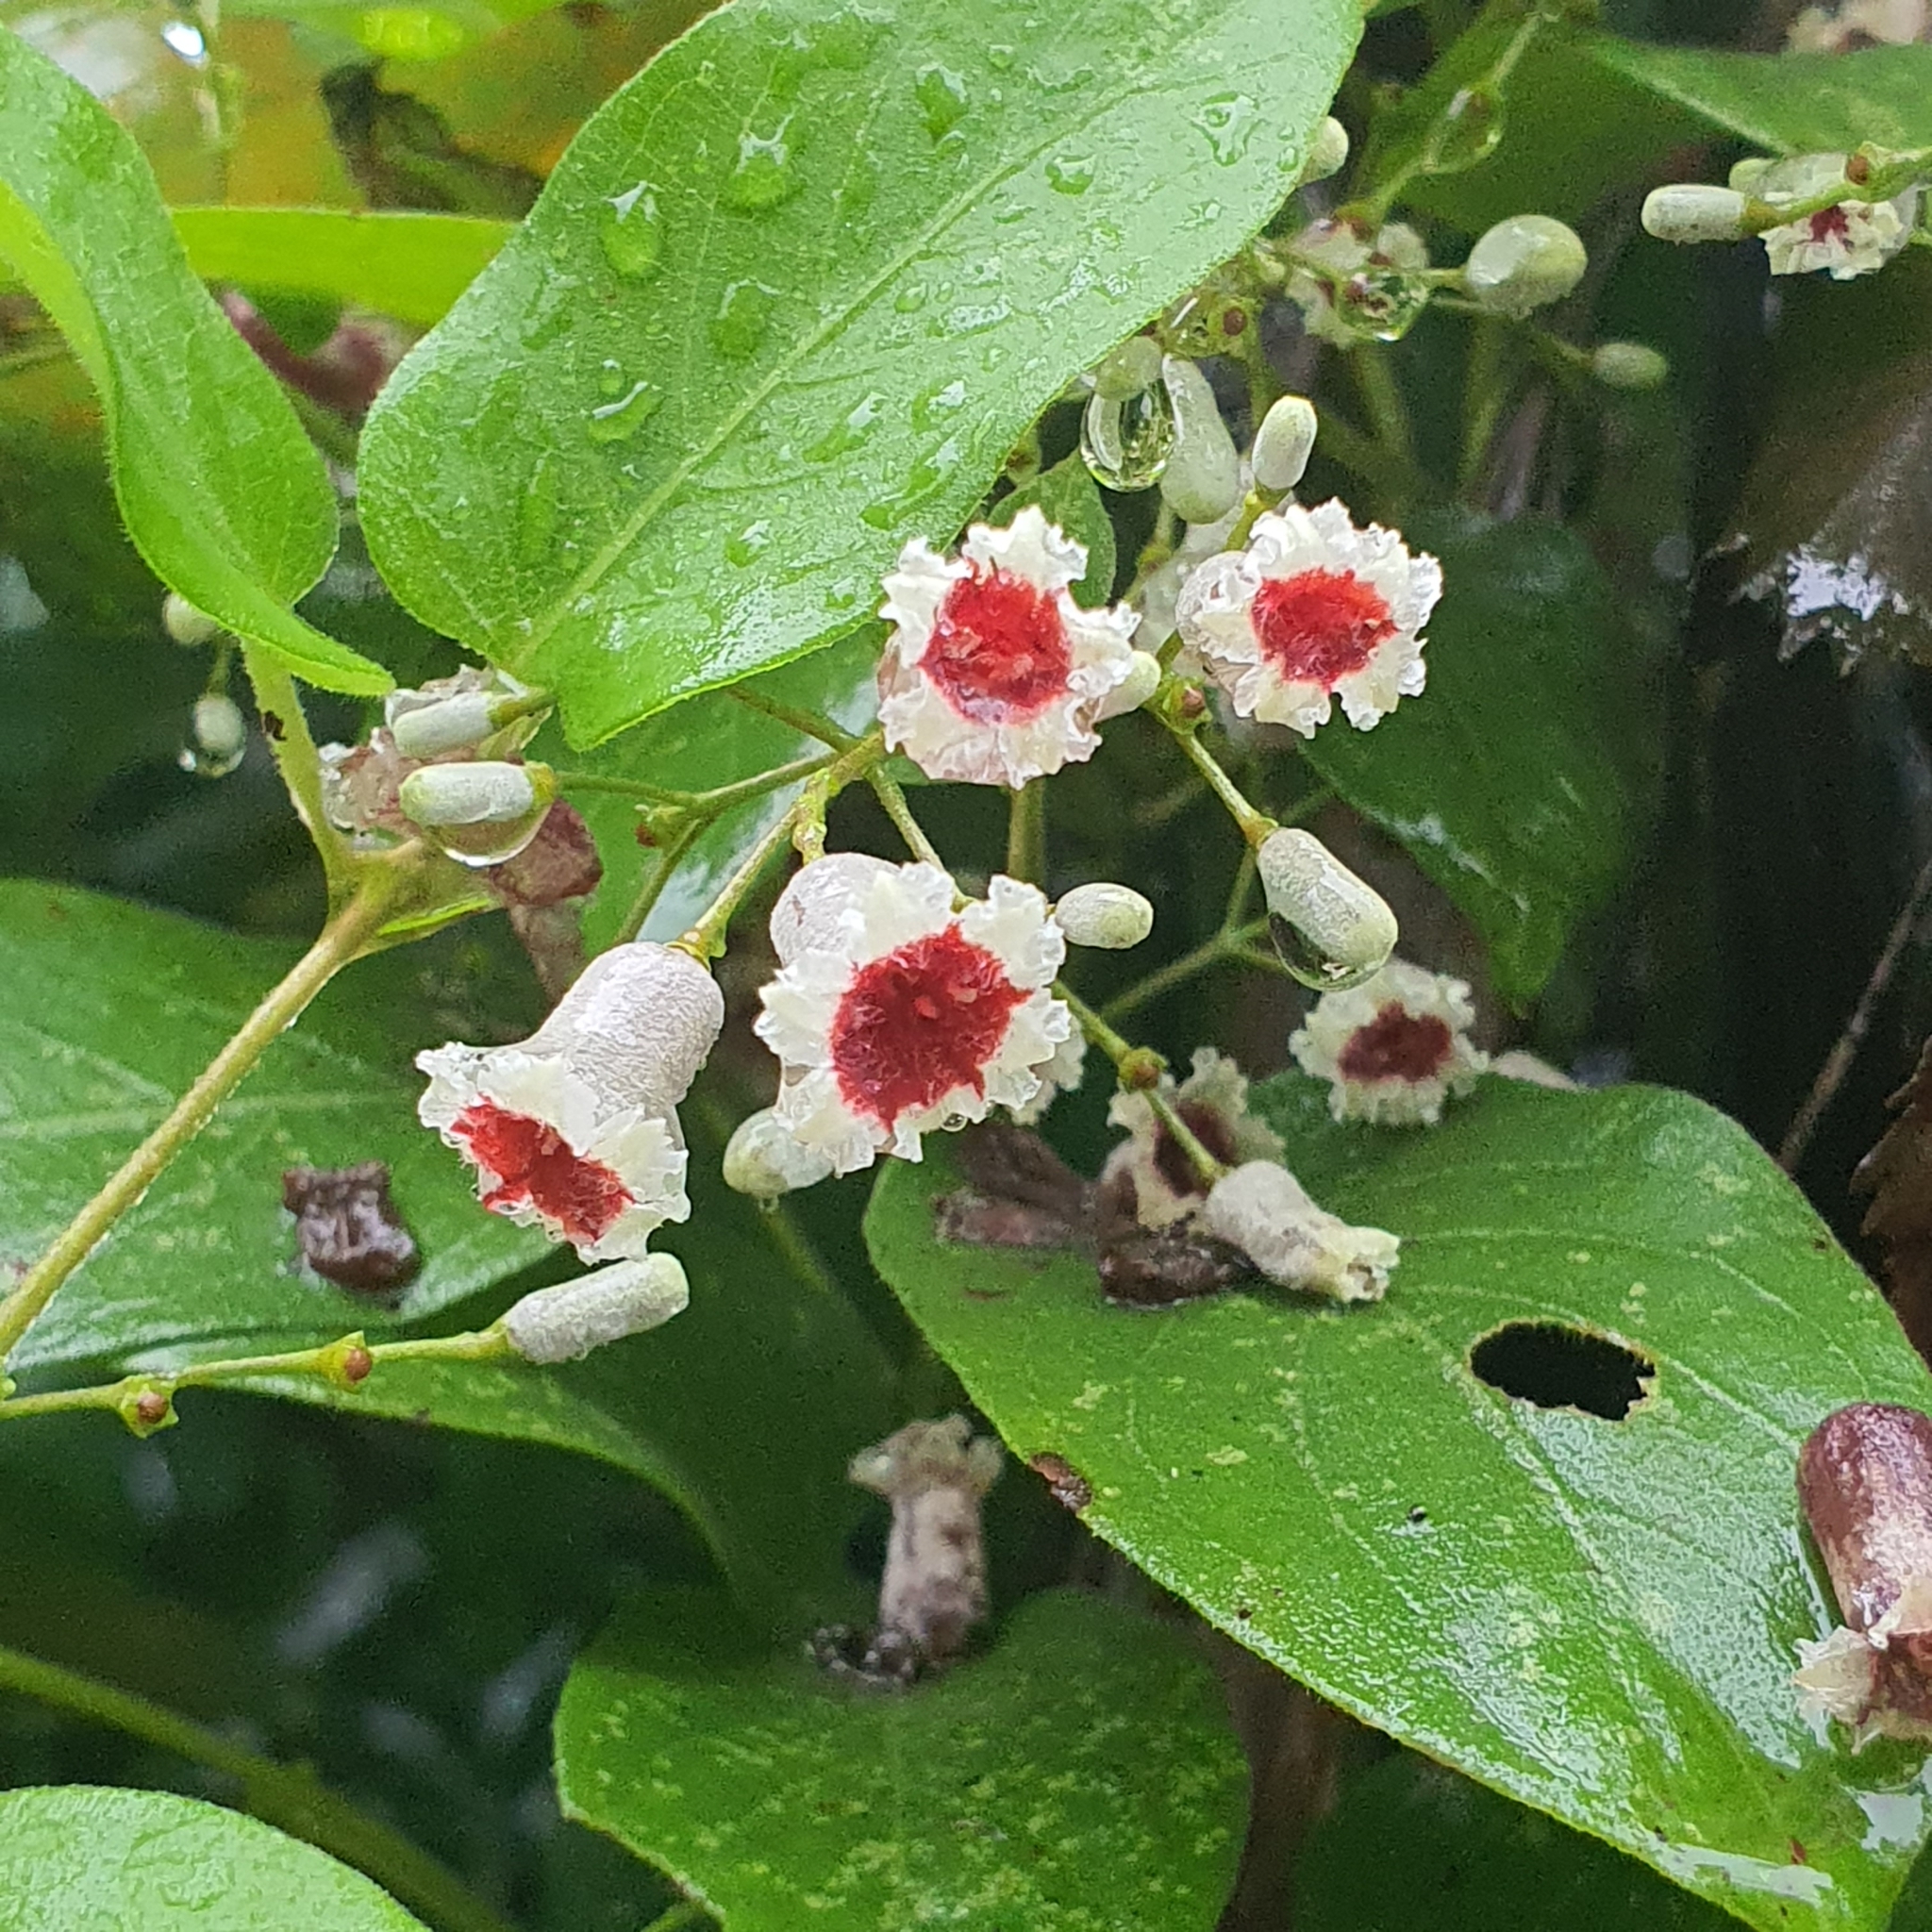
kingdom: Plantae
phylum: Tracheophyta
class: Magnoliopsida
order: Gentianales
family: Rubiaceae
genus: Paederia
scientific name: Paederia foetida
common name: Stinkvine
